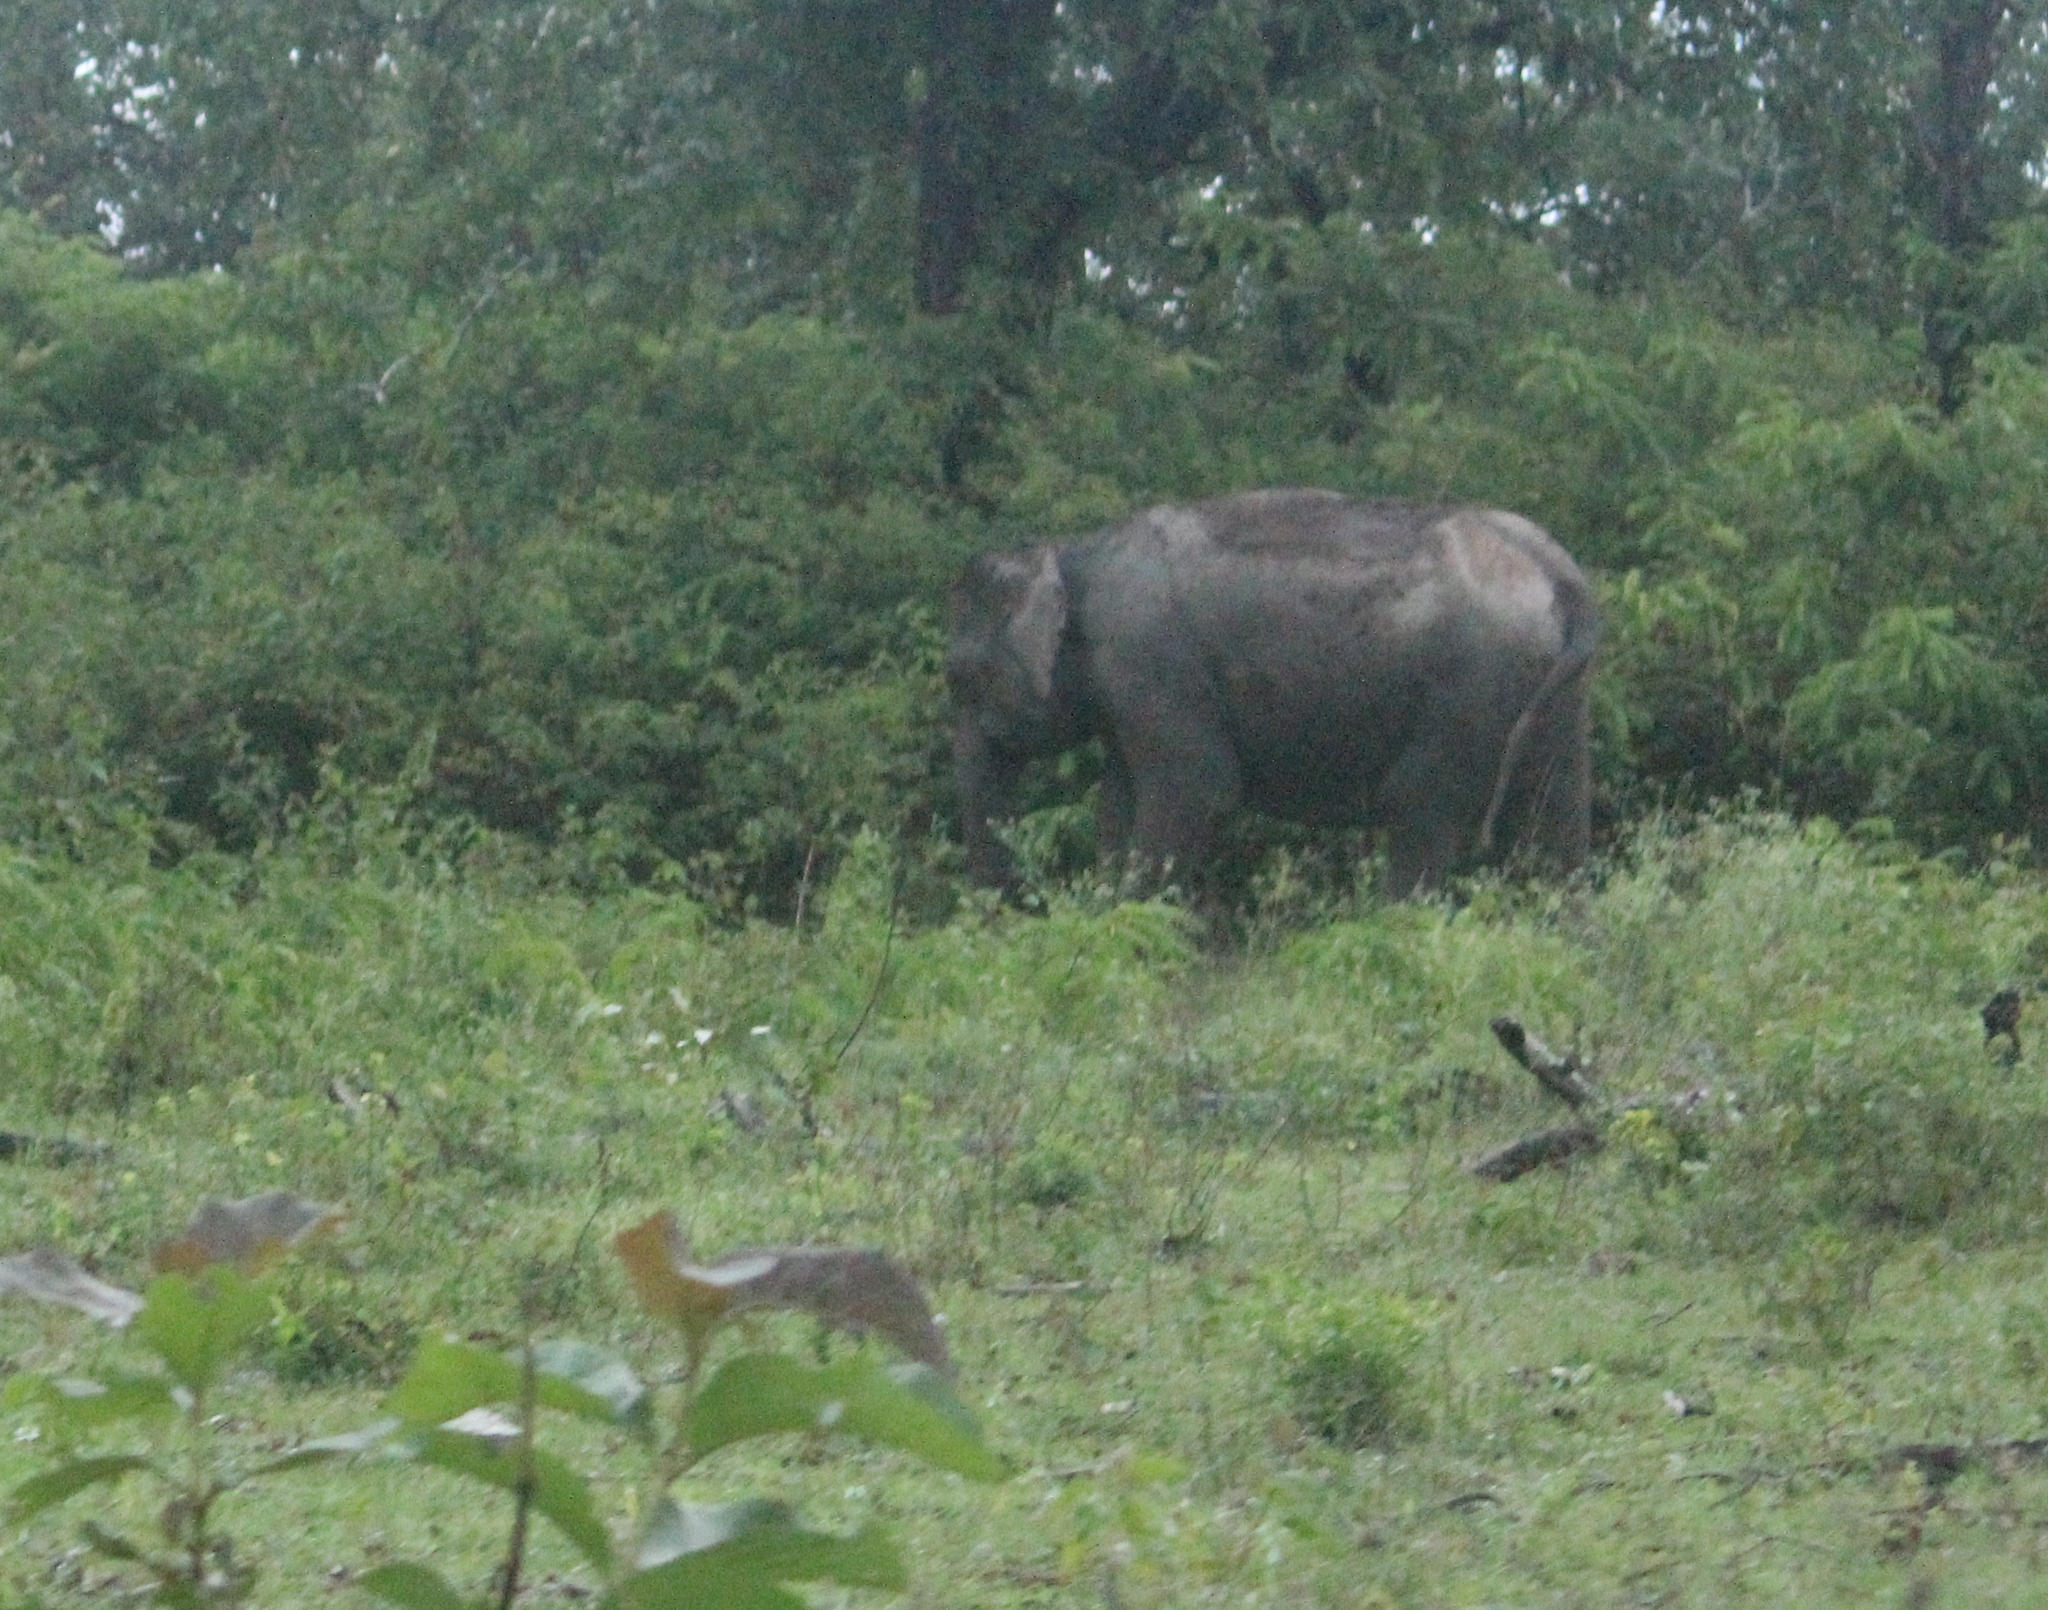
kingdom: Animalia
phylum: Chordata
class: Mammalia
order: Proboscidea
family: Elephantidae
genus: Elephas
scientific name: Elephas maximus
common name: Asian elephant
